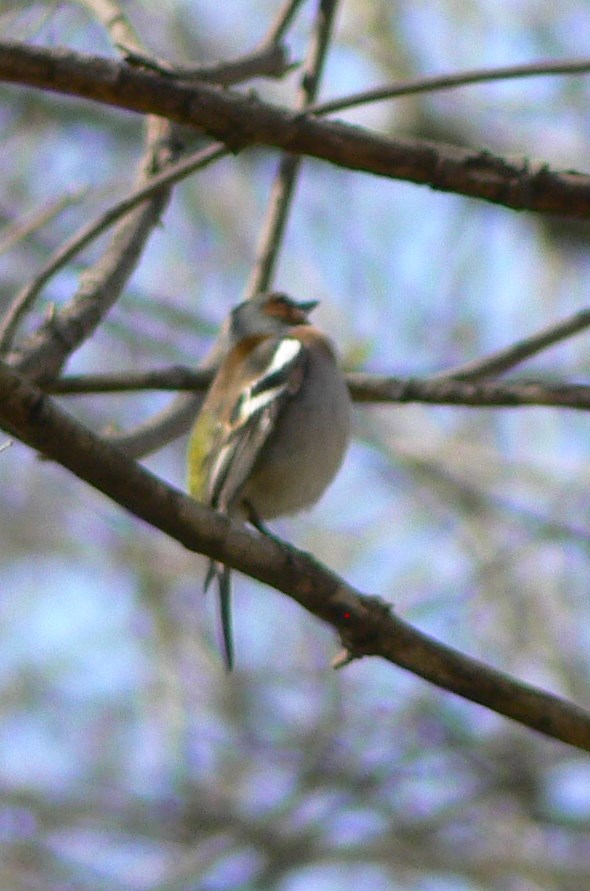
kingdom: Animalia
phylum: Chordata
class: Aves
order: Passeriformes
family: Fringillidae
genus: Fringilla
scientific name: Fringilla coelebs
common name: Common chaffinch
